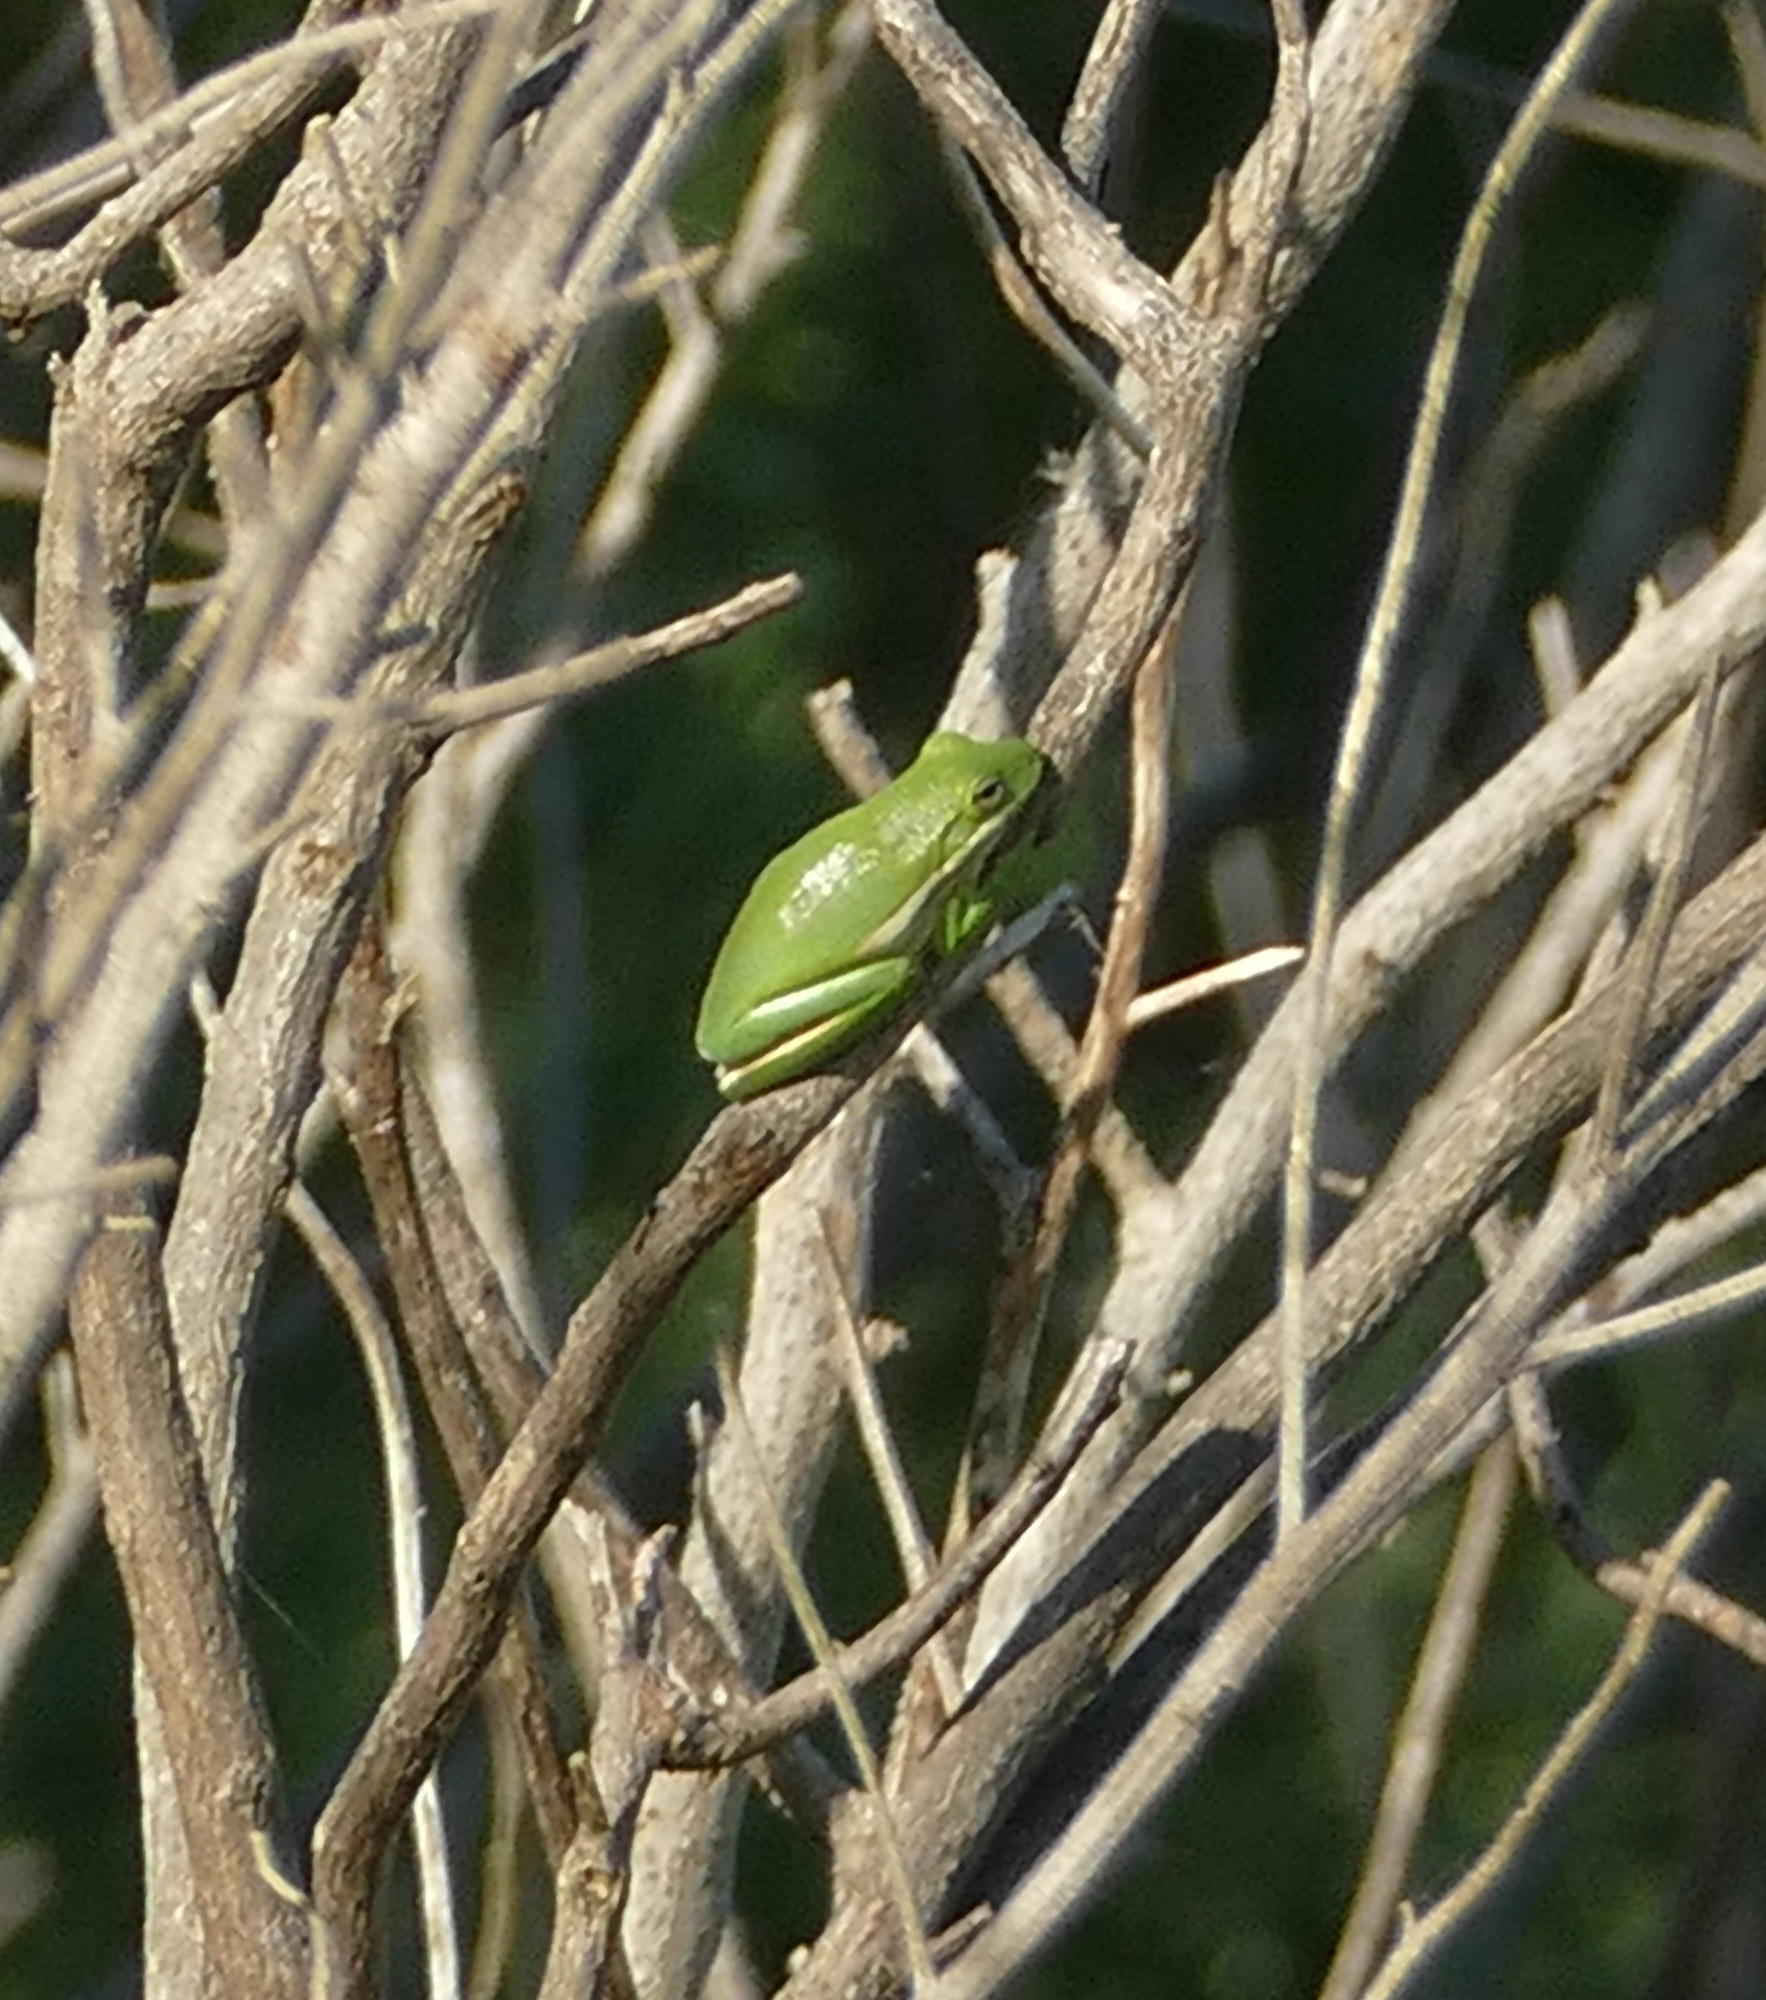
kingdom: Animalia
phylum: Chordata
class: Amphibia
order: Anura
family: Hylidae
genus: Dryophytes
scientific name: Dryophytes cinereus
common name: Green treefrog
